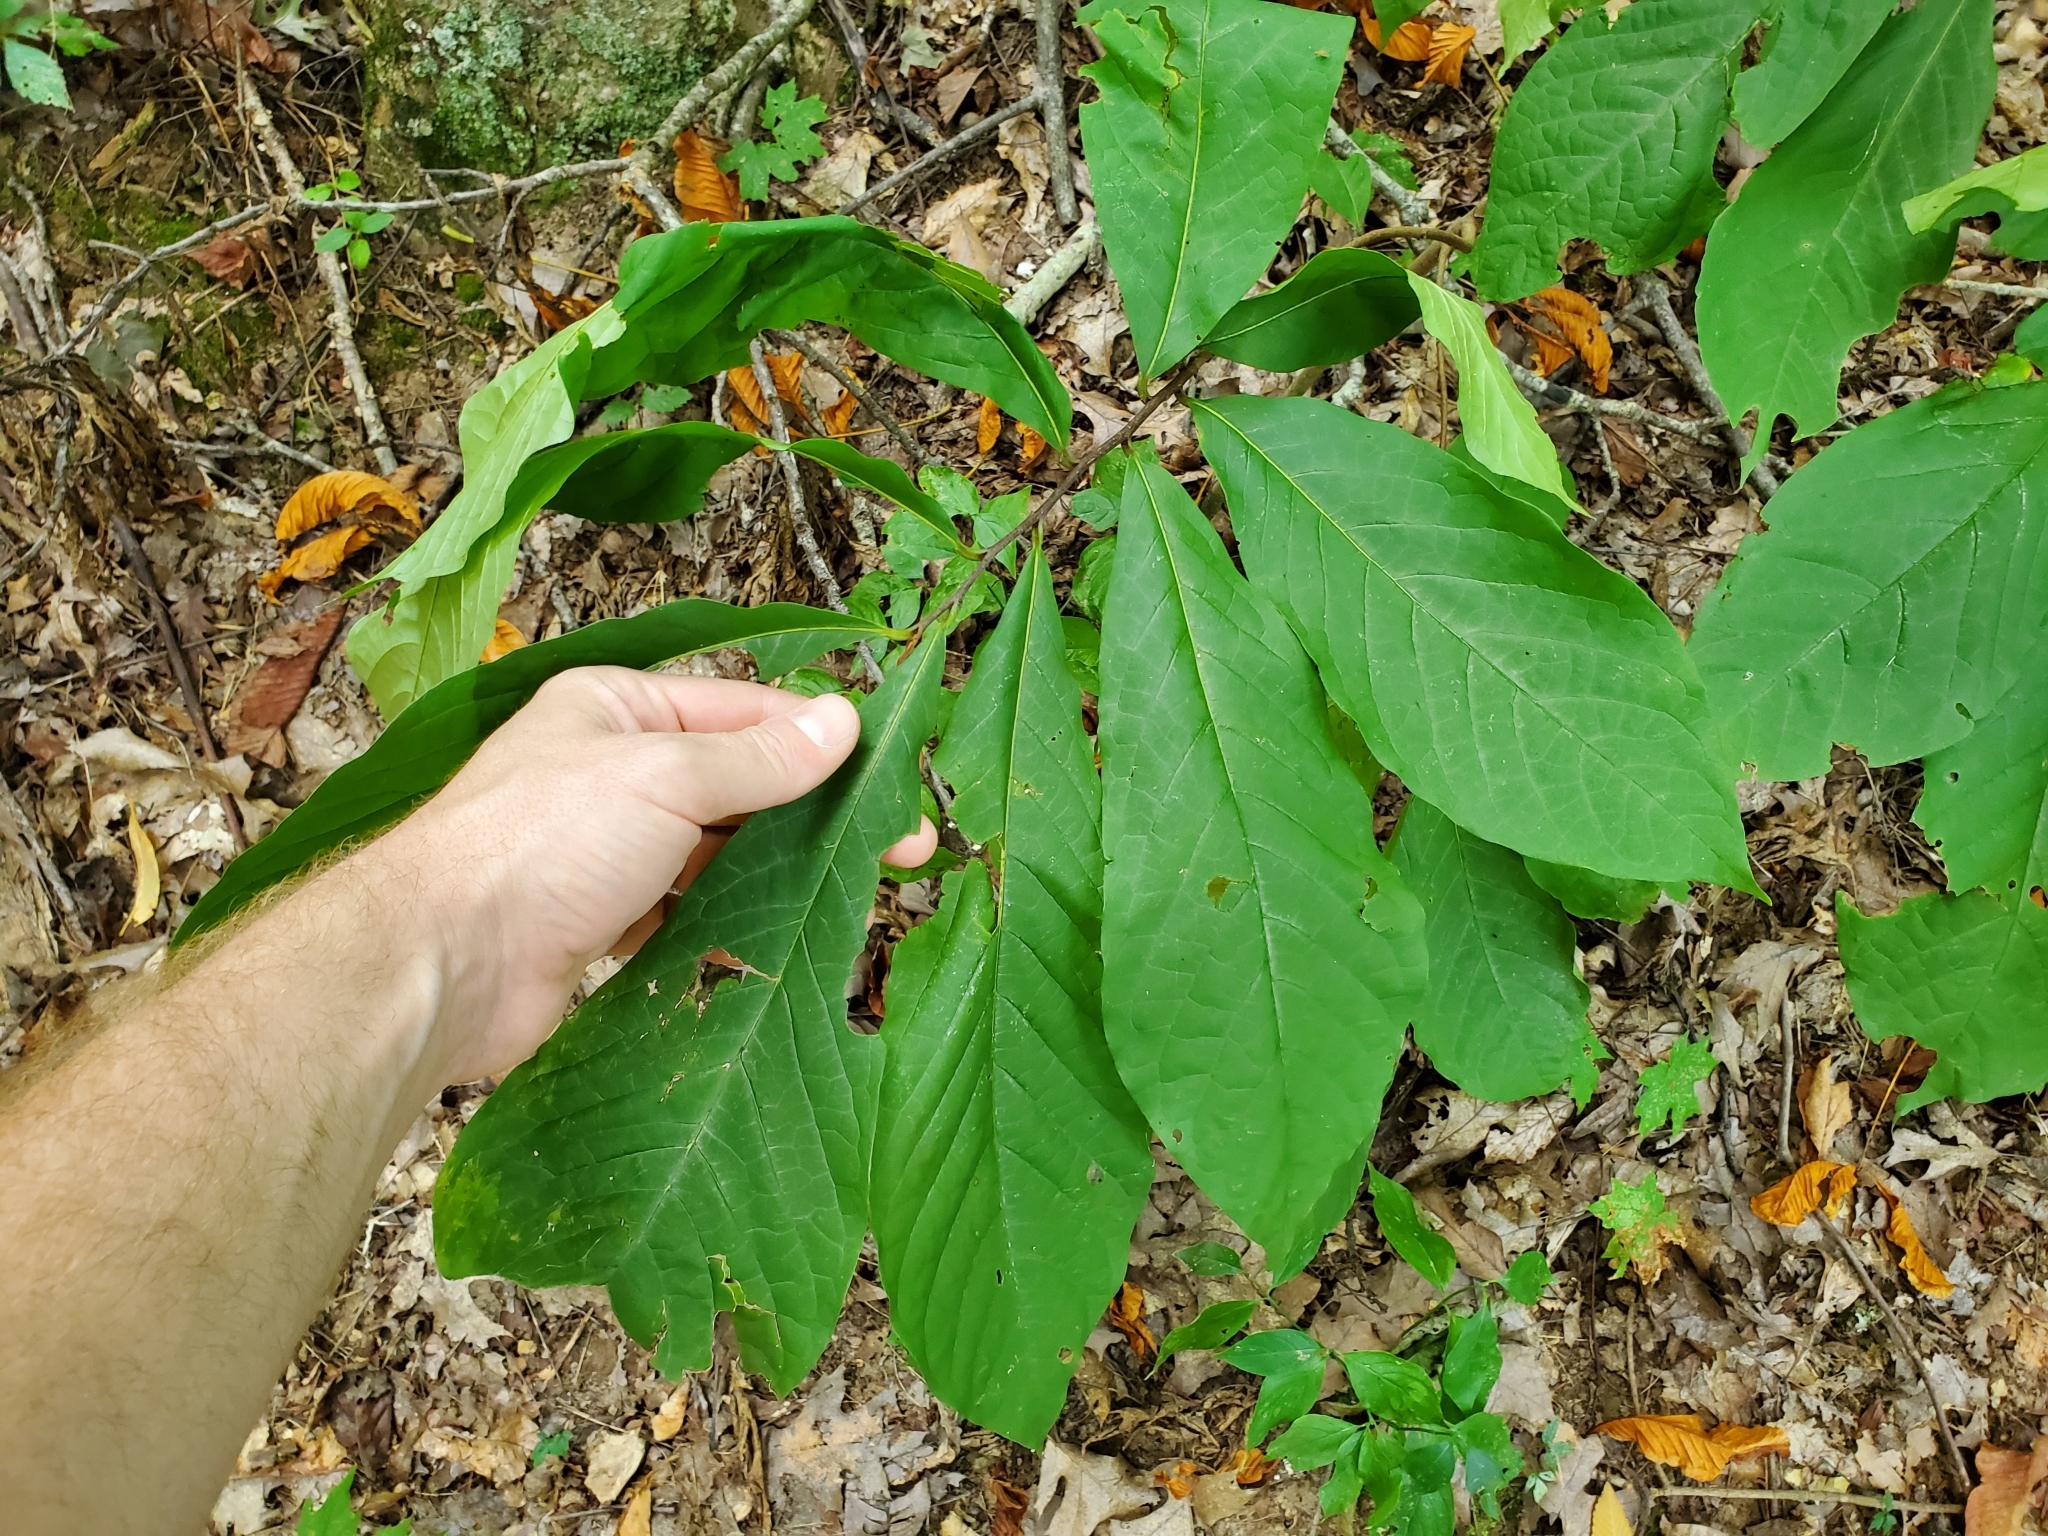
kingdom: Plantae
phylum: Tracheophyta
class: Magnoliopsida
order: Magnoliales
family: Annonaceae
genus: Asimina
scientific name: Asimina triloba
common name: Dog-banana
